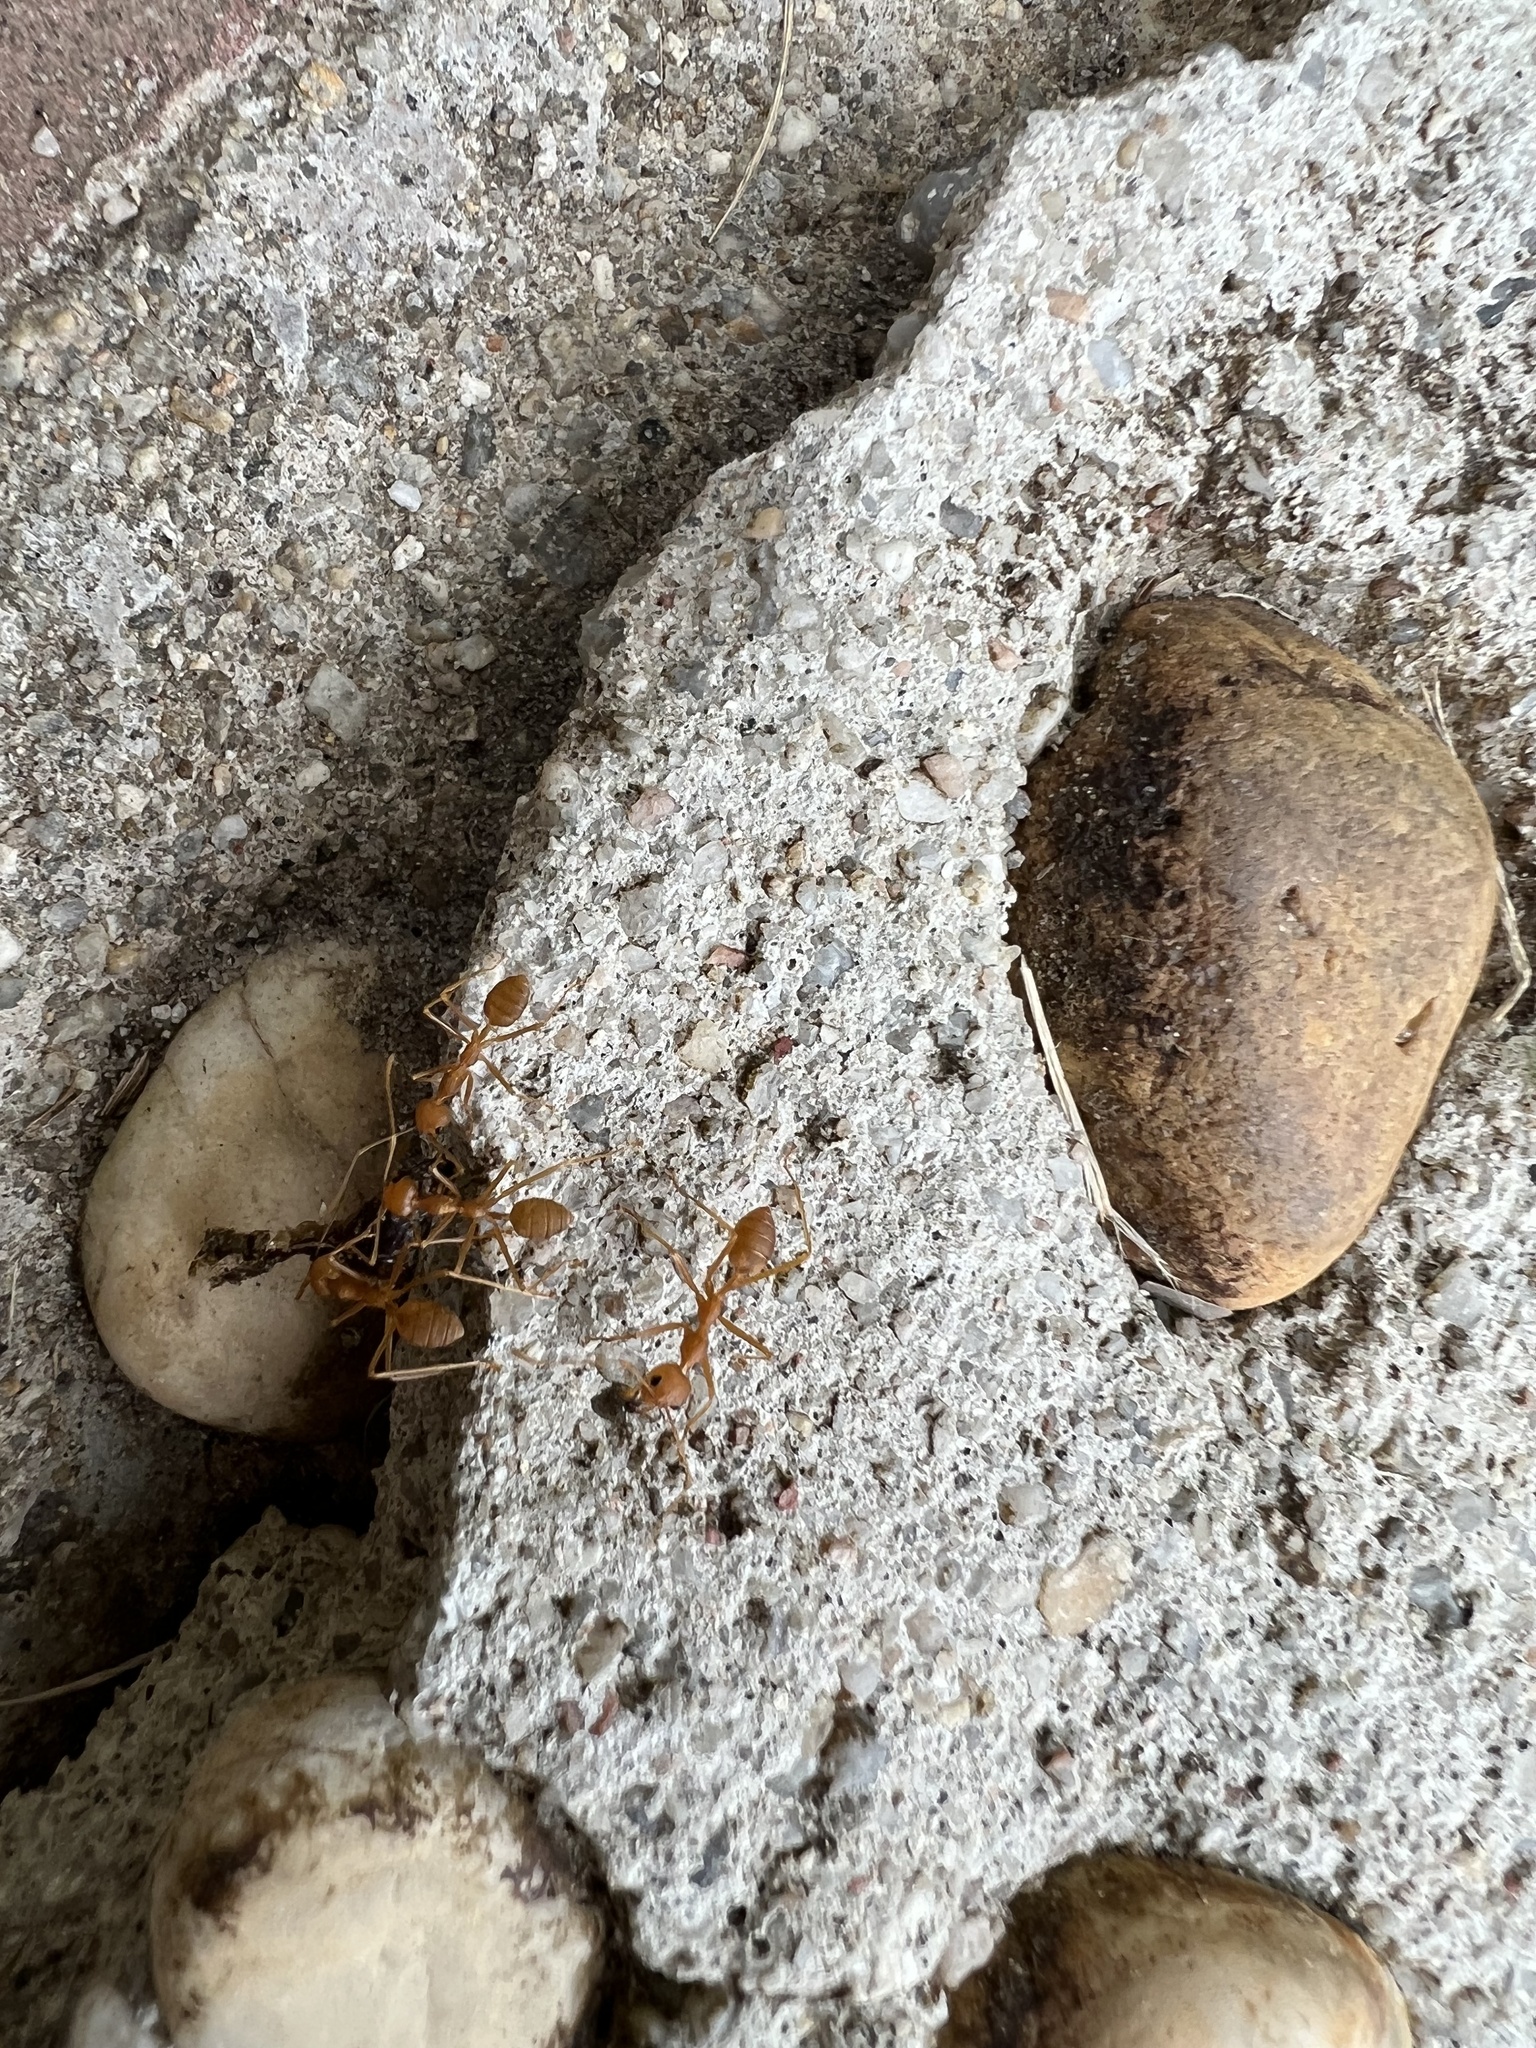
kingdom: Animalia
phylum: Arthropoda
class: Insecta
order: Hymenoptera
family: Formicidae
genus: Oecophylla
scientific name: Oecophylla smaragdina
